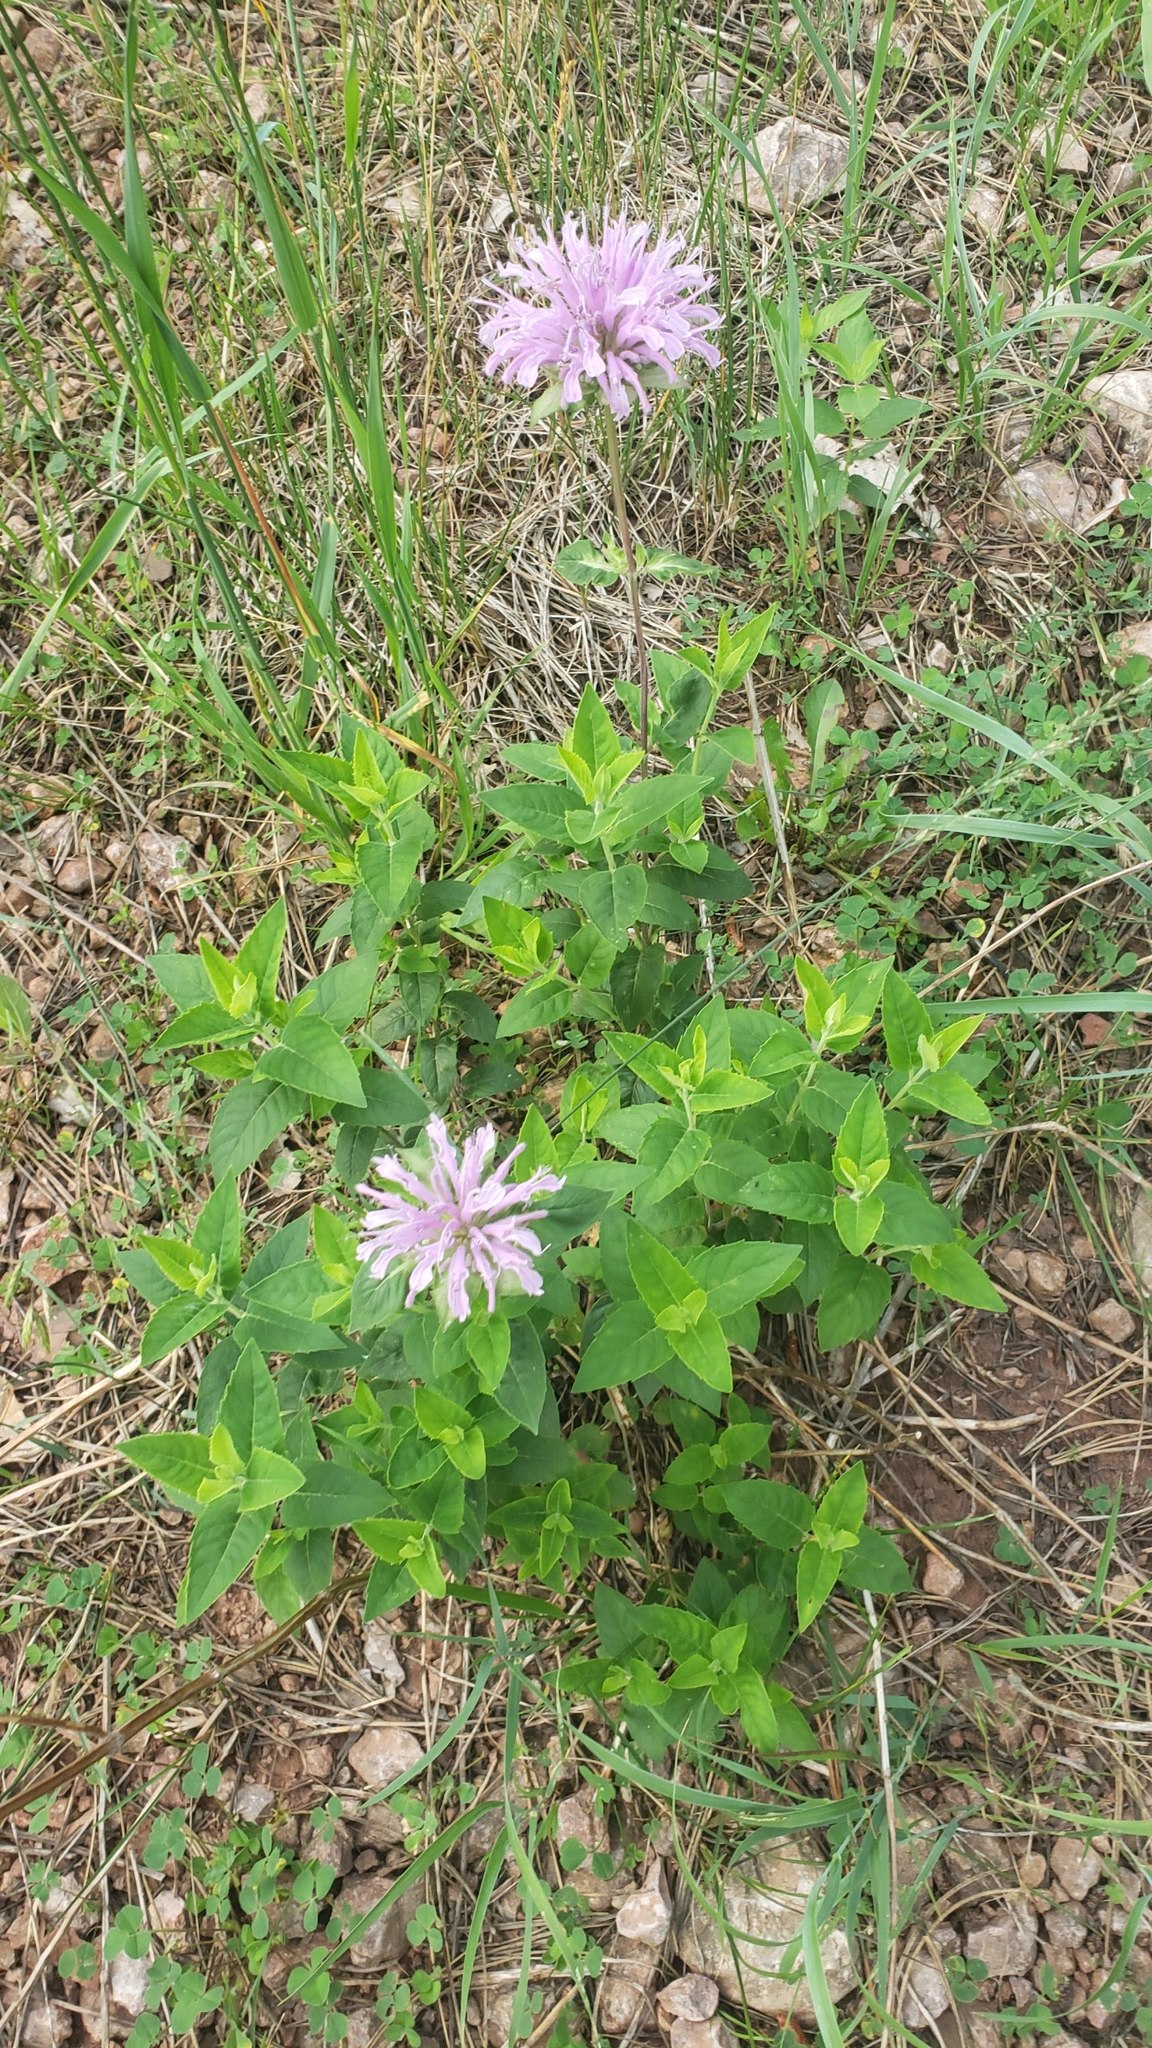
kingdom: Plantae
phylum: Tracheophyta
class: Magnoliopsida
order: Lamiales
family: Lamiaceae
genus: Monarda
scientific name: Monarda fistulosa
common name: Purple beebalm
